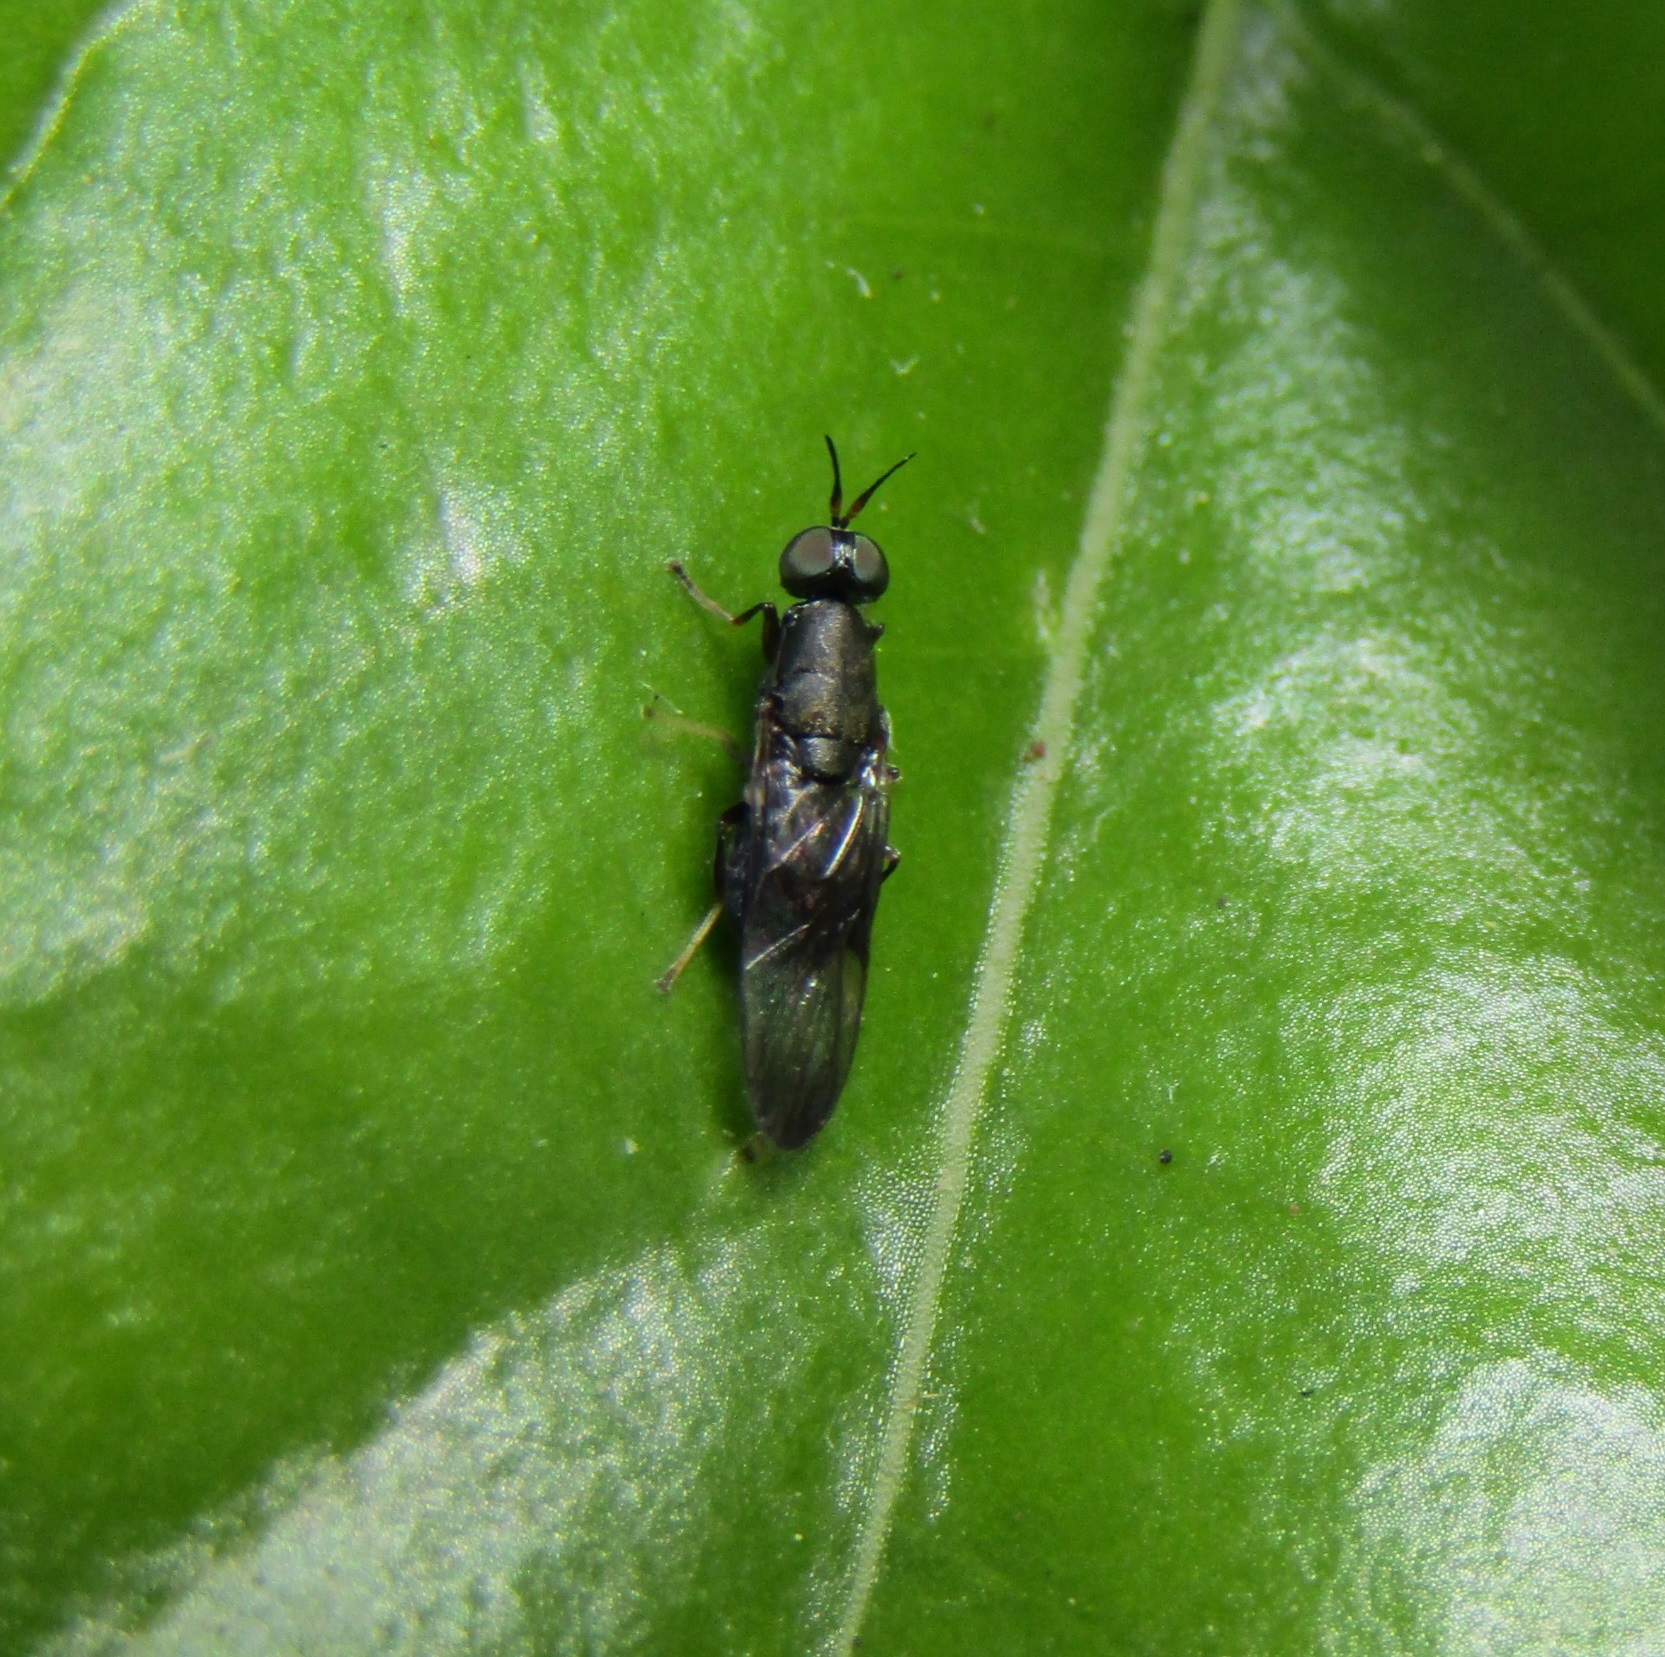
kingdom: Animalia
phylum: Arthropoda
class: Insecta
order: Diptera
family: Stratiomyidae
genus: Dysbiota
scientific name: Dysbiota peregrina
